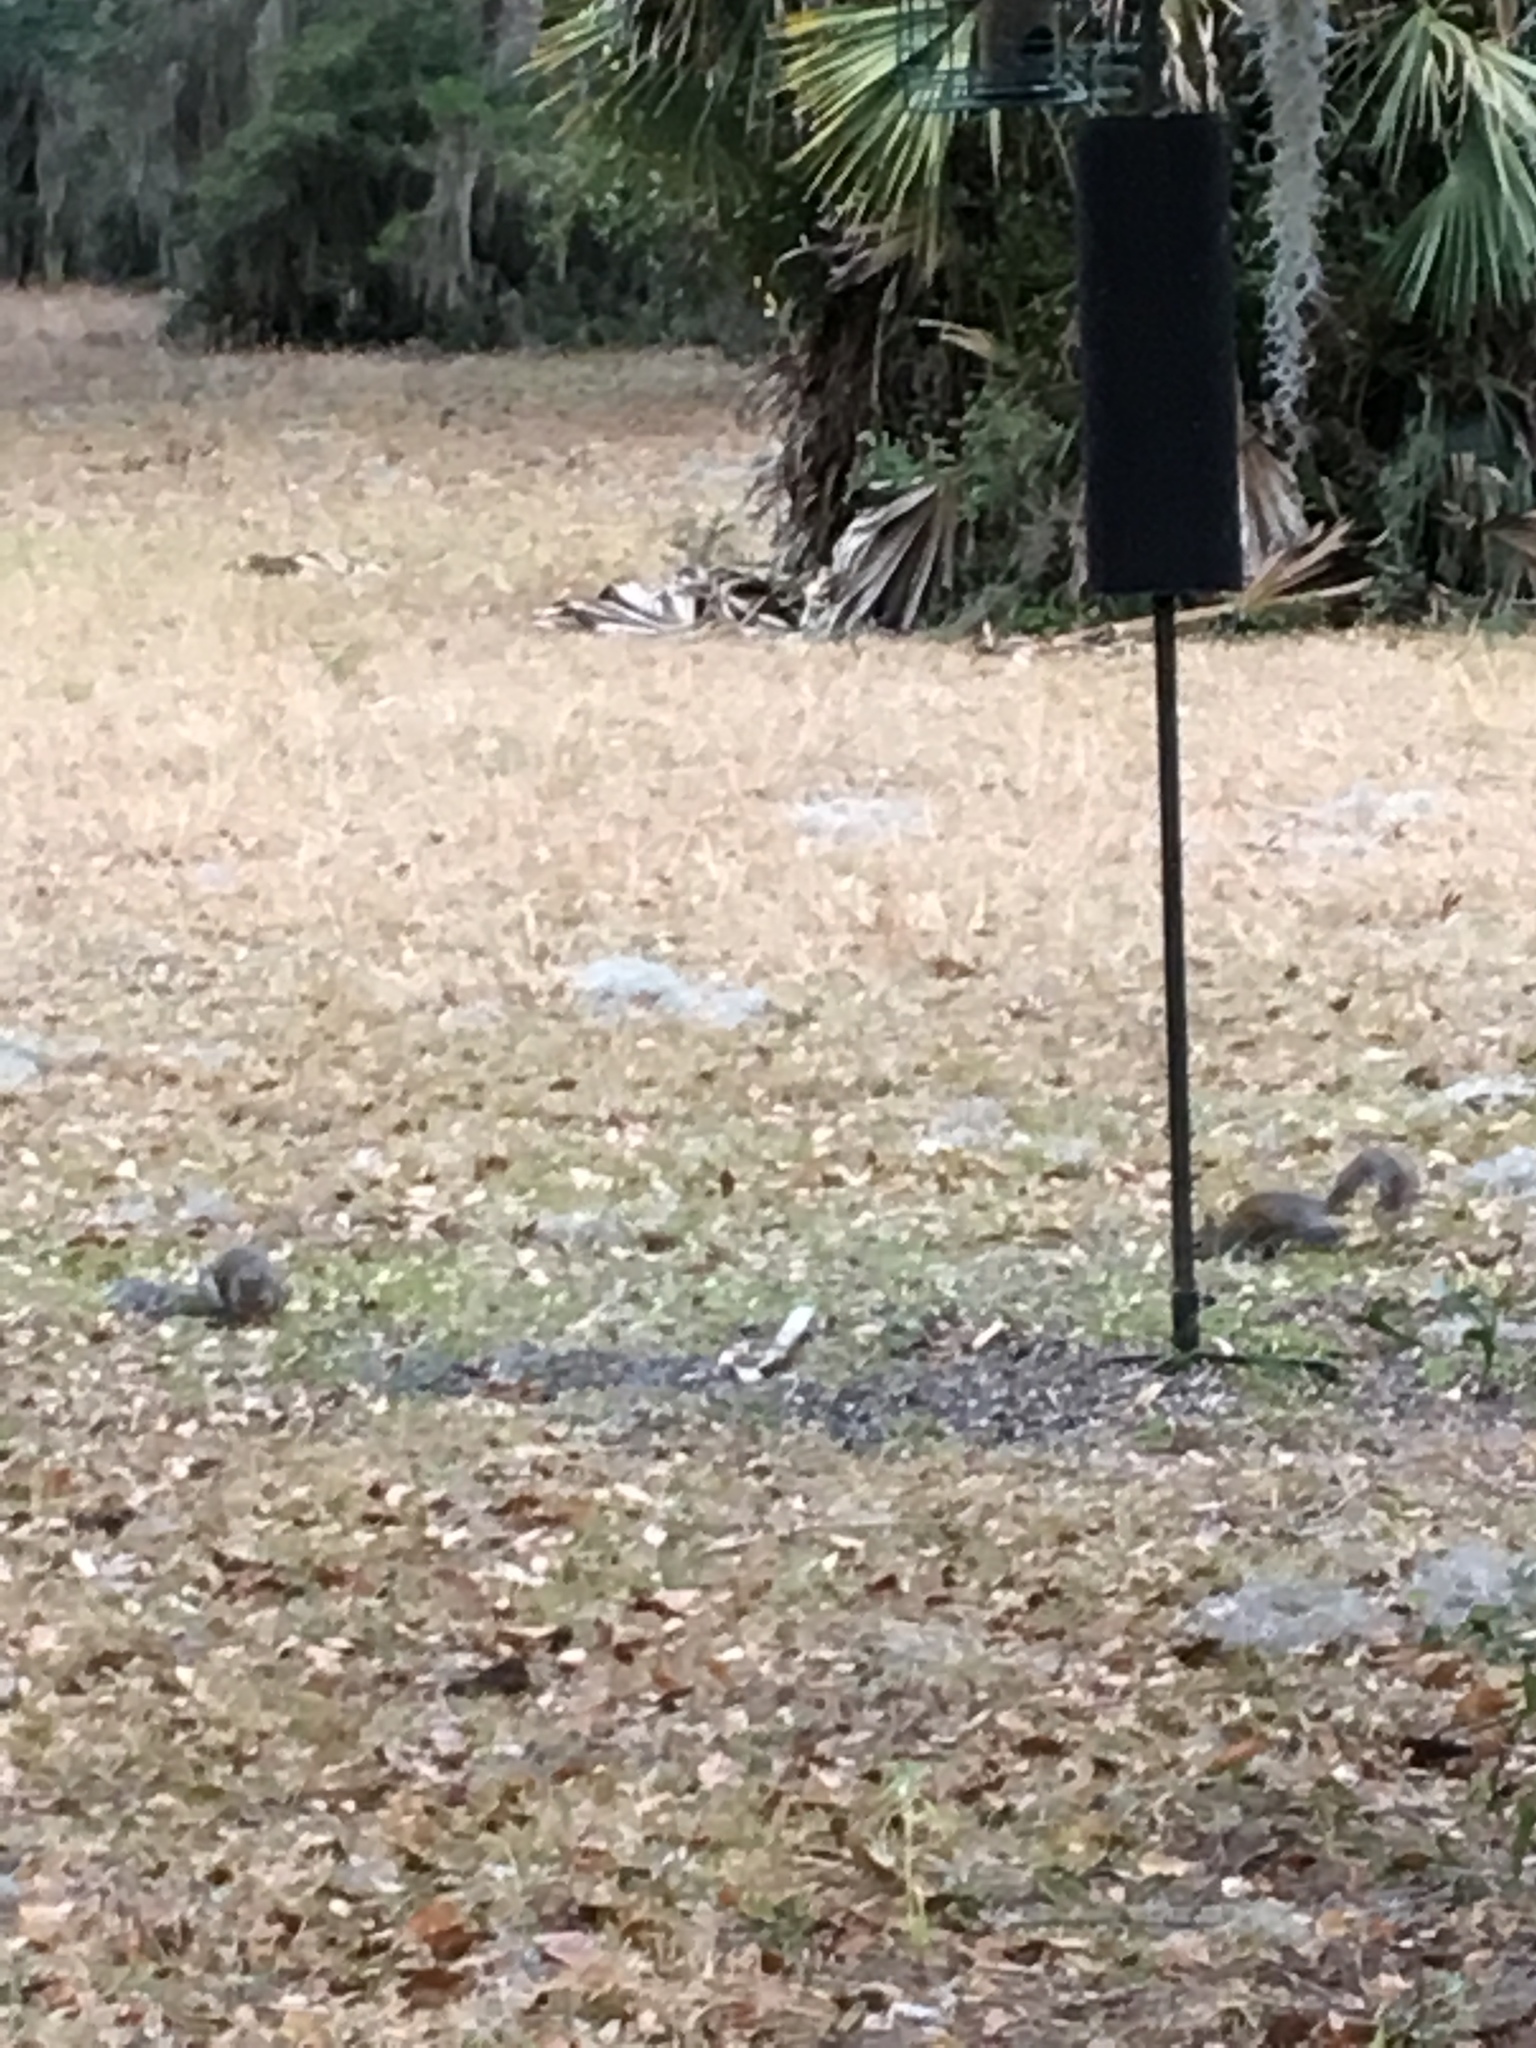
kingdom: Animalia
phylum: Chordata
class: Mammalia
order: Rodentia
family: Sciuridae
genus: Sciurus
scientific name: Sciurus carolinensis
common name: Eastern gray squirrel
